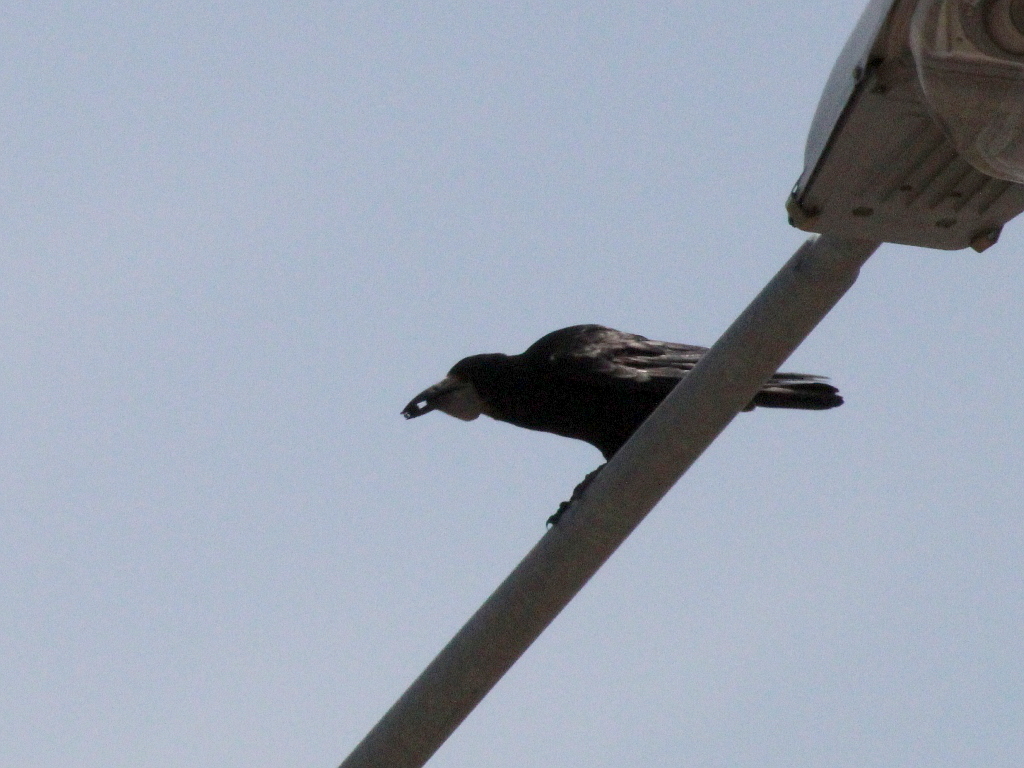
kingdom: Animalia
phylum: Chordata
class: Aves
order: Passeriformes
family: Corvidae
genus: Corvus
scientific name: Corvus frugilegus
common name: Rook
